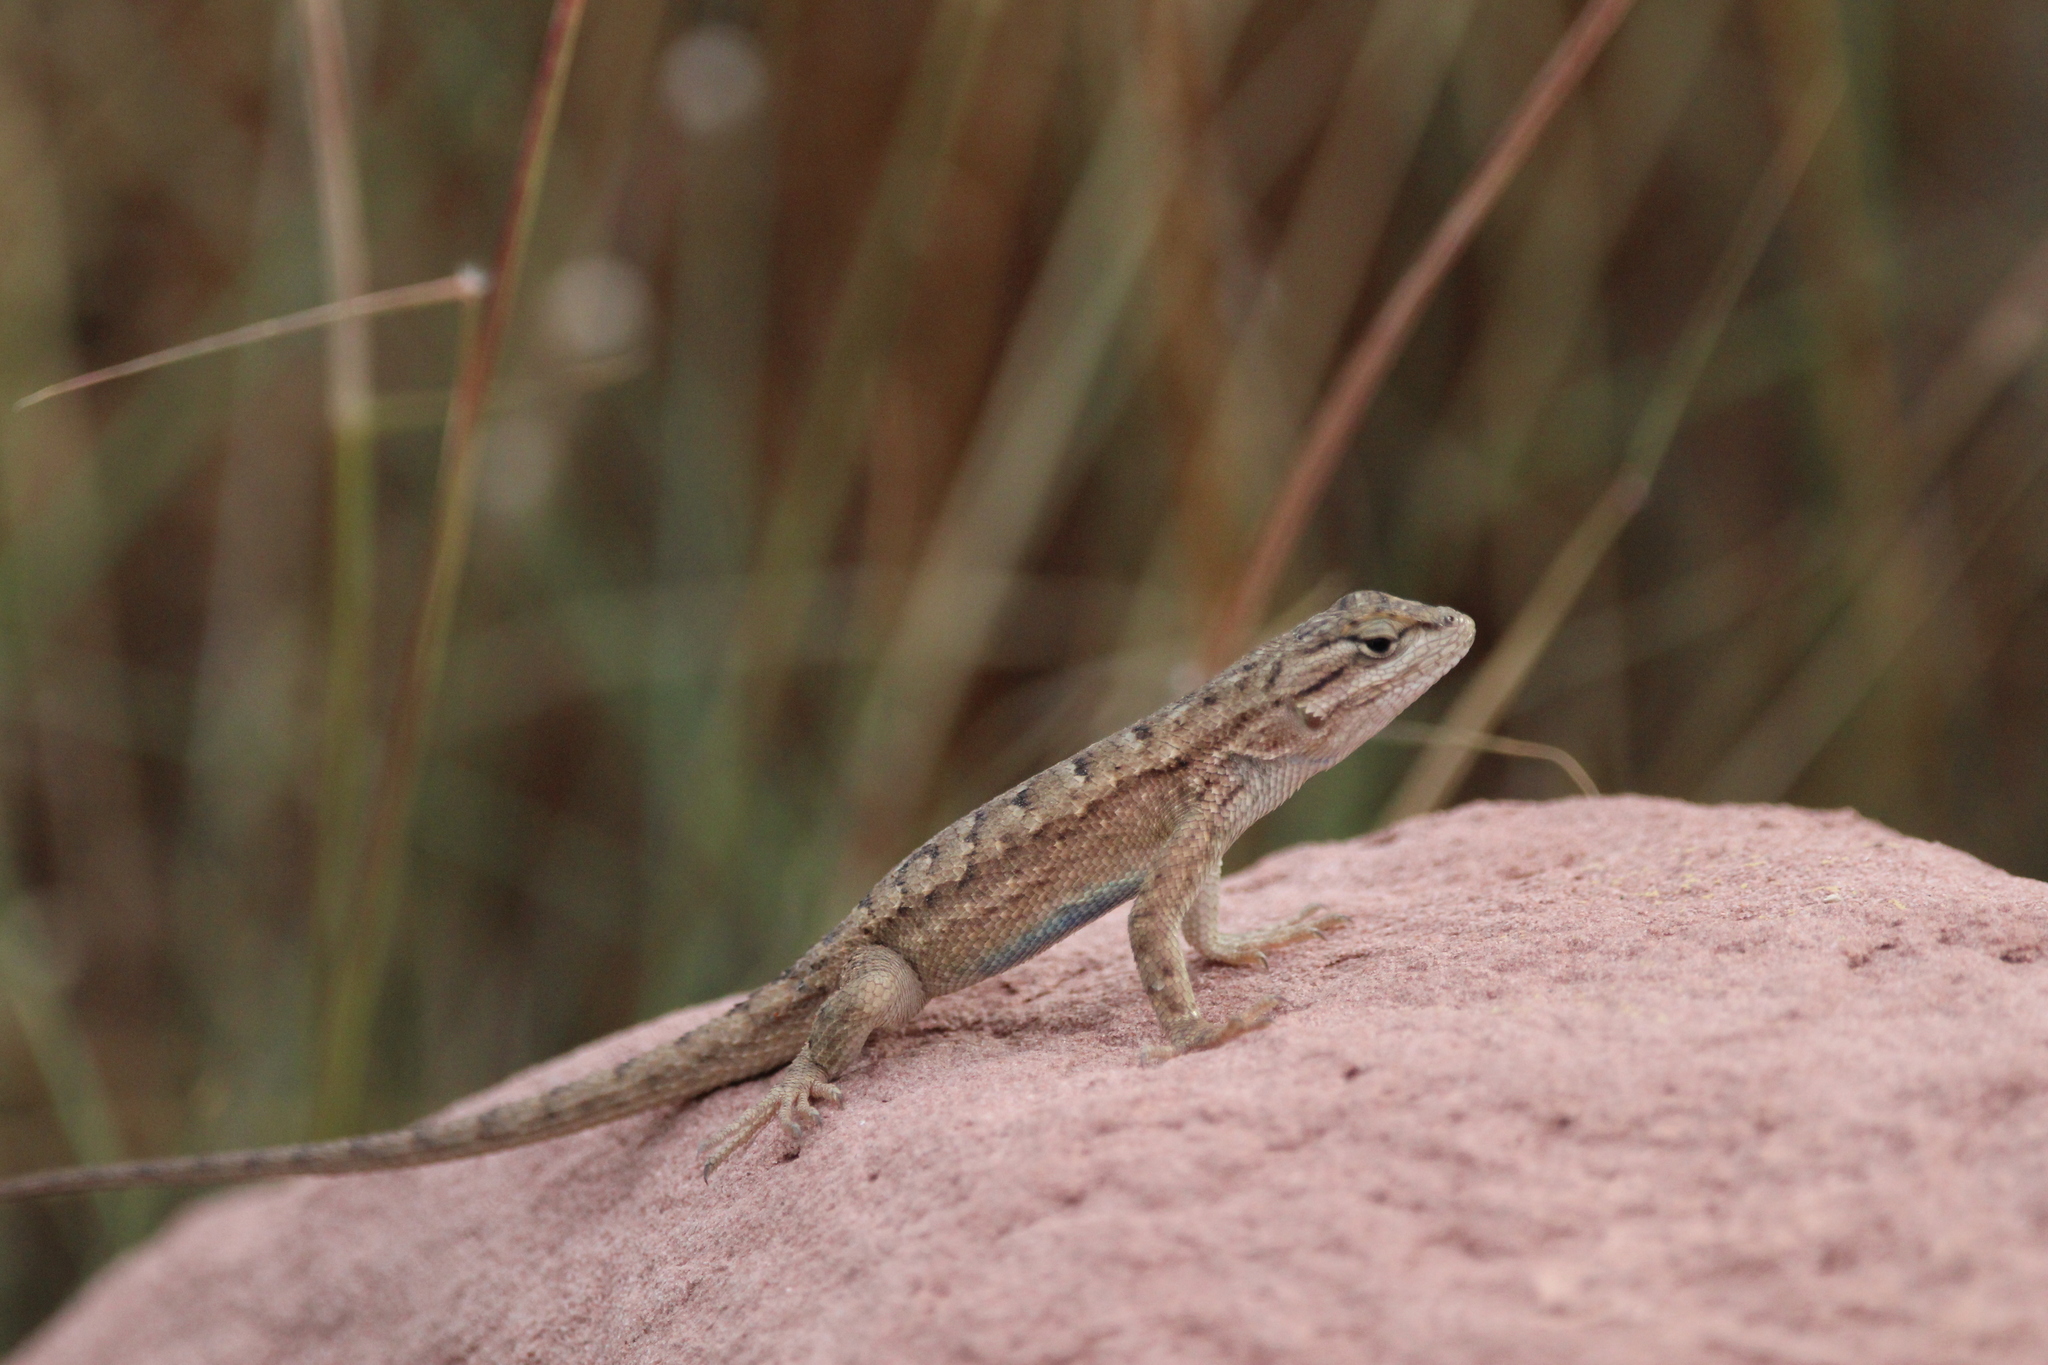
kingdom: Animalia
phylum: Chordata
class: Squamata
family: Phrynosomatidae
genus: Sceloporus
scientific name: Sceloporus tristichus
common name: Plateau fence lizard
